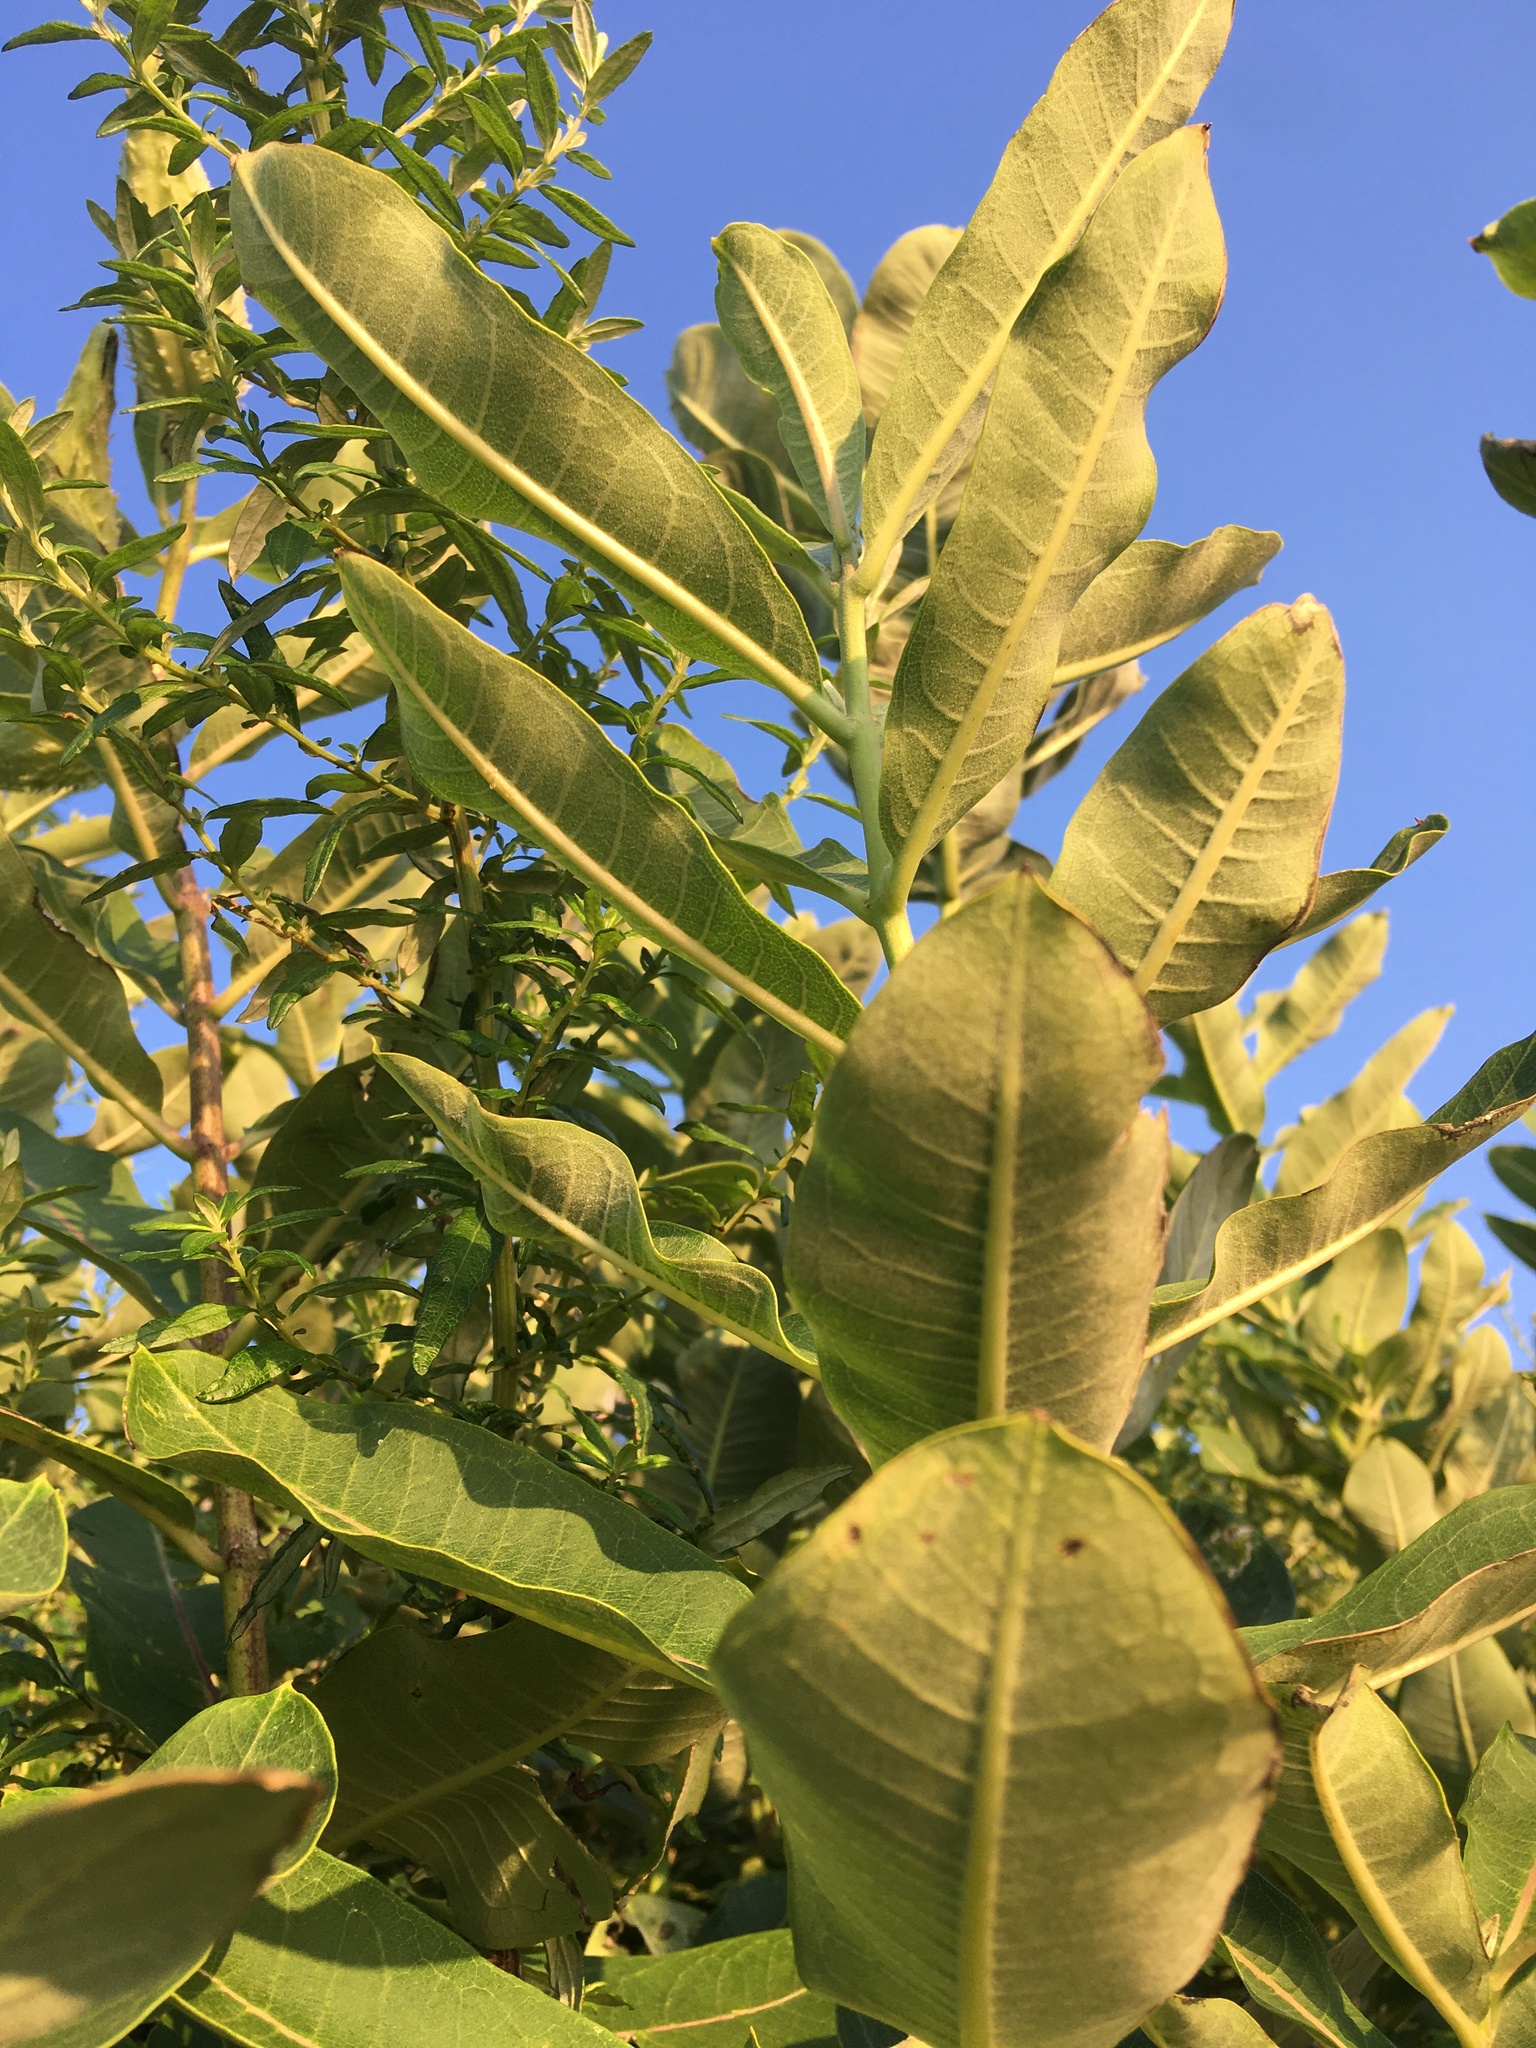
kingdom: Plantae
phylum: Tracheophyta
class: Magnoliopsida
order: Gentianales
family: Apocynaceae
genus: Asclepias
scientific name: Asclepias syriaca
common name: Common milkweed
